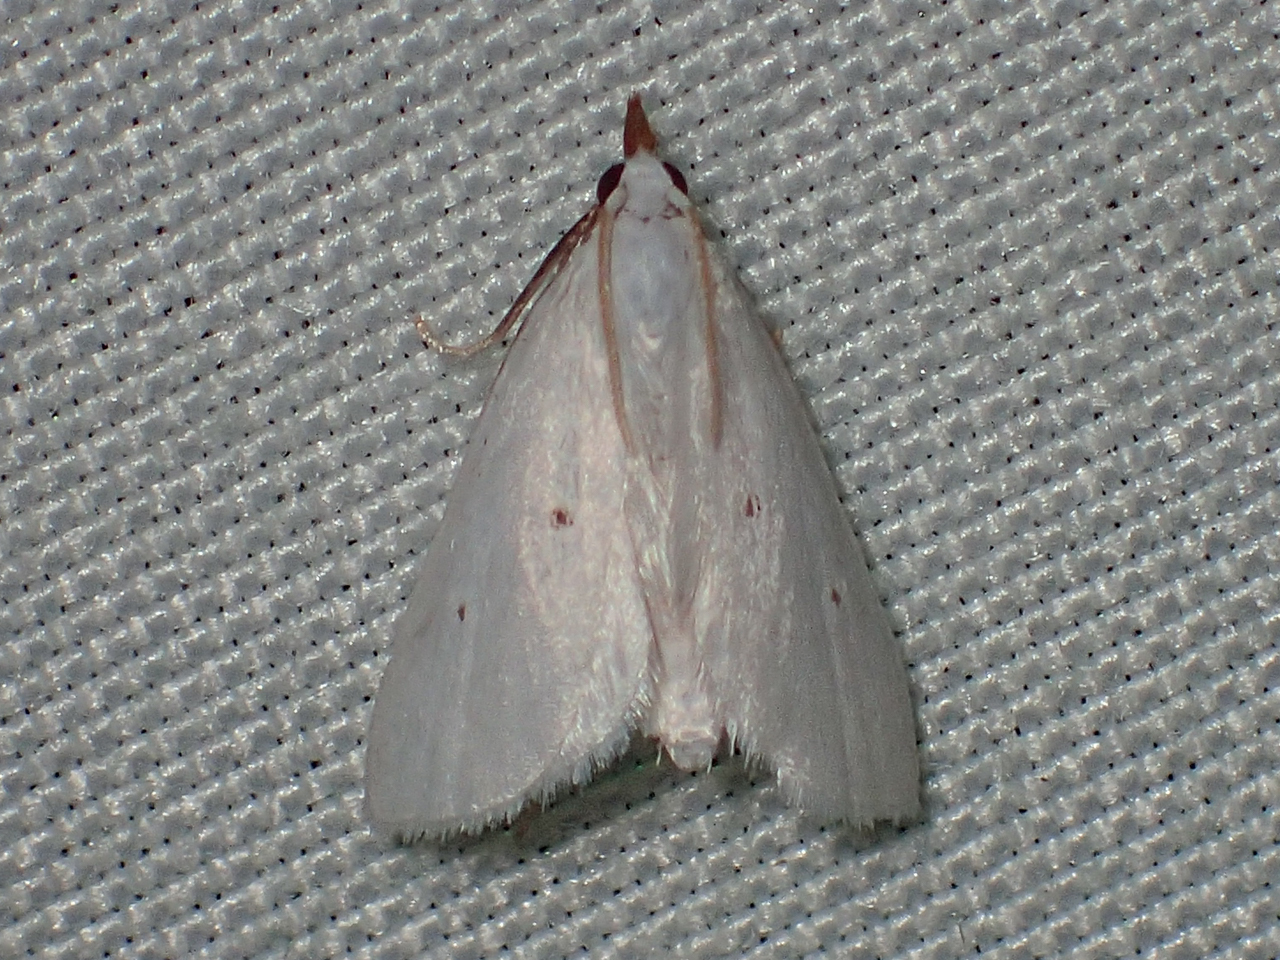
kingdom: Animalia
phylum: Arthropoda
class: Insecta
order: Lepidoptera
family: Crambidae
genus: Leptosteges
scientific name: Leptosteges vestaliella
